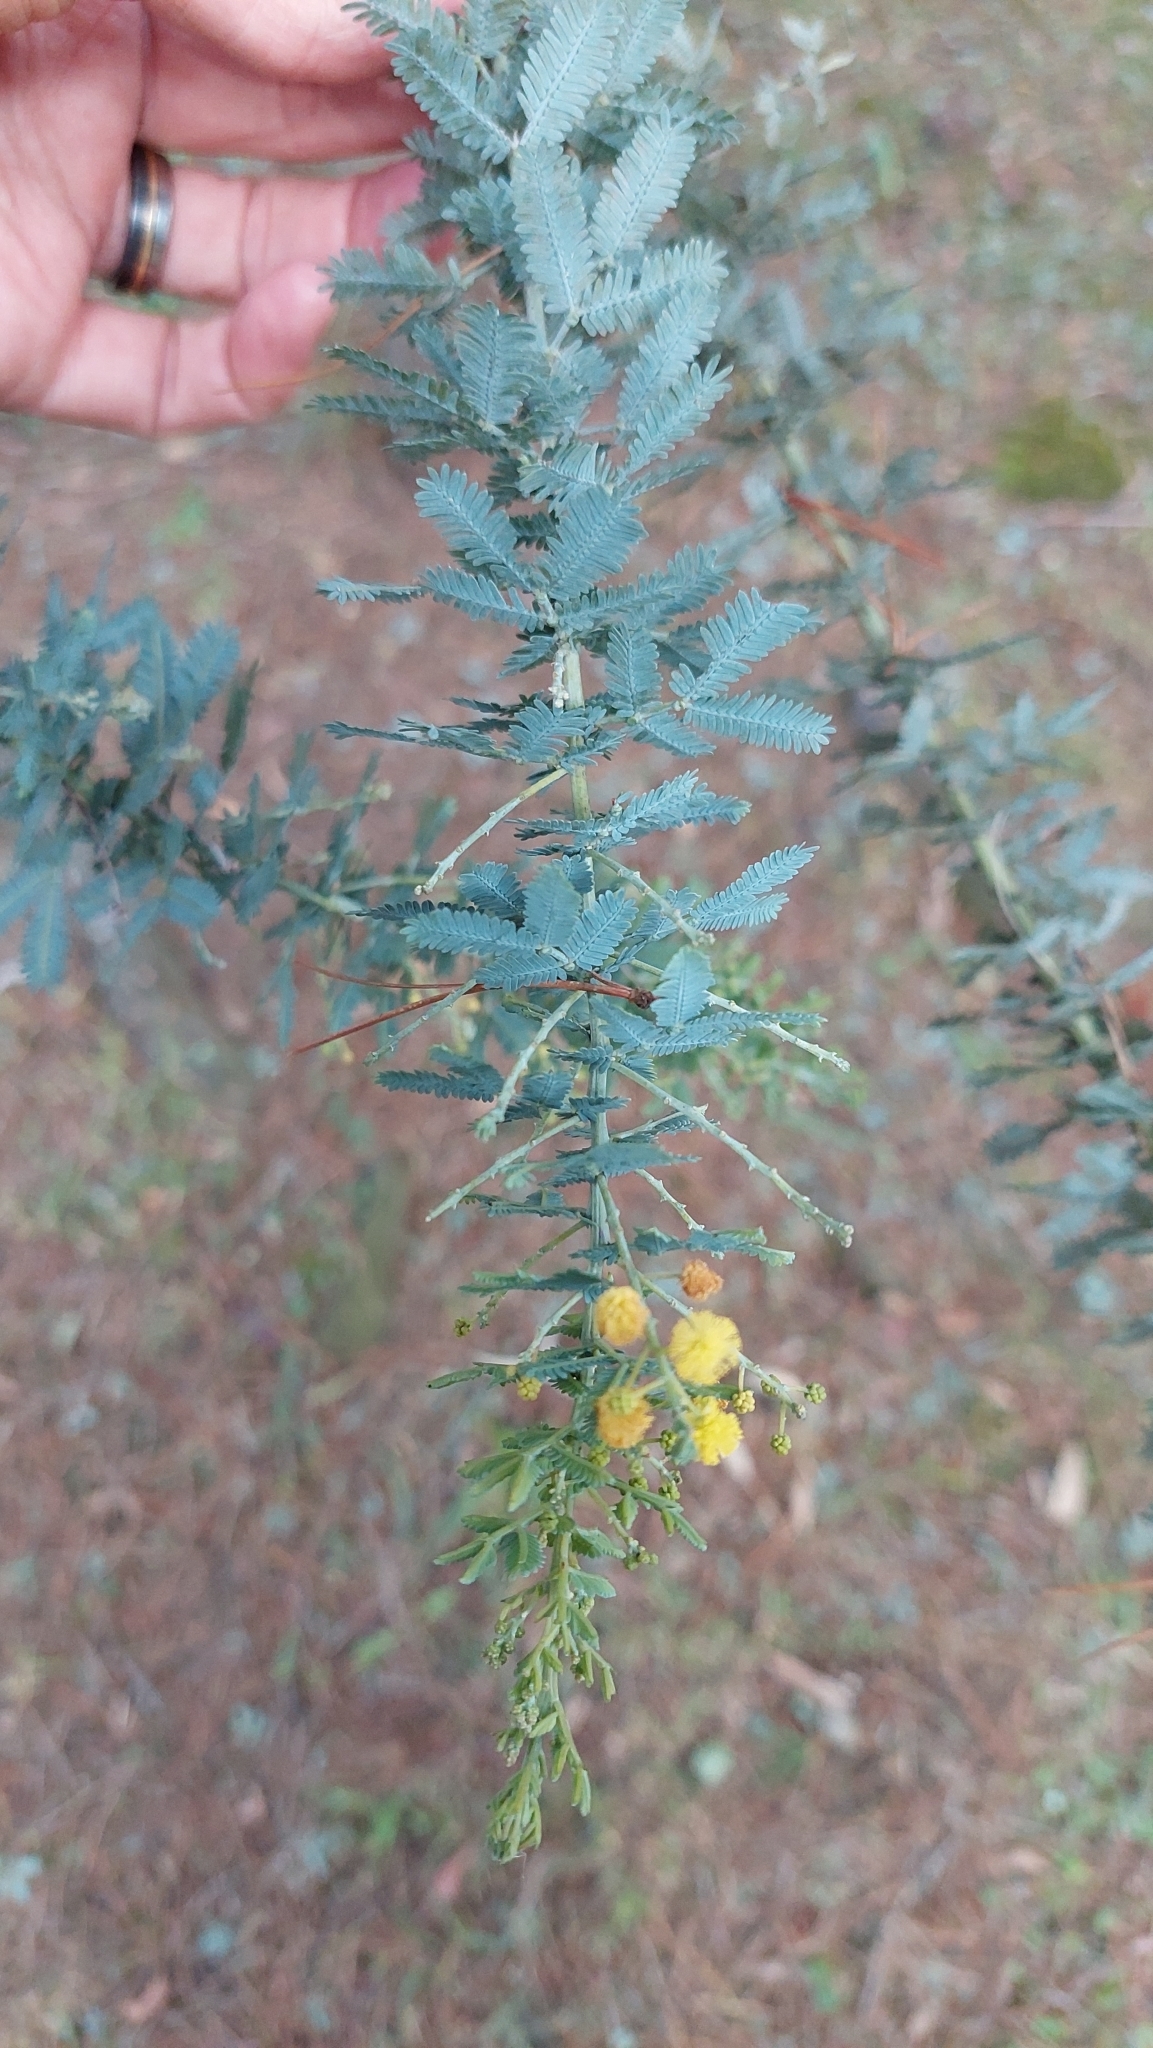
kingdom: Plantae
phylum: Tracheophyta
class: Magnoliopsida
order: Fabales
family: Fabaceae
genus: Acacia
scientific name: Acacia baileyana
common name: Cootamundra wattle
